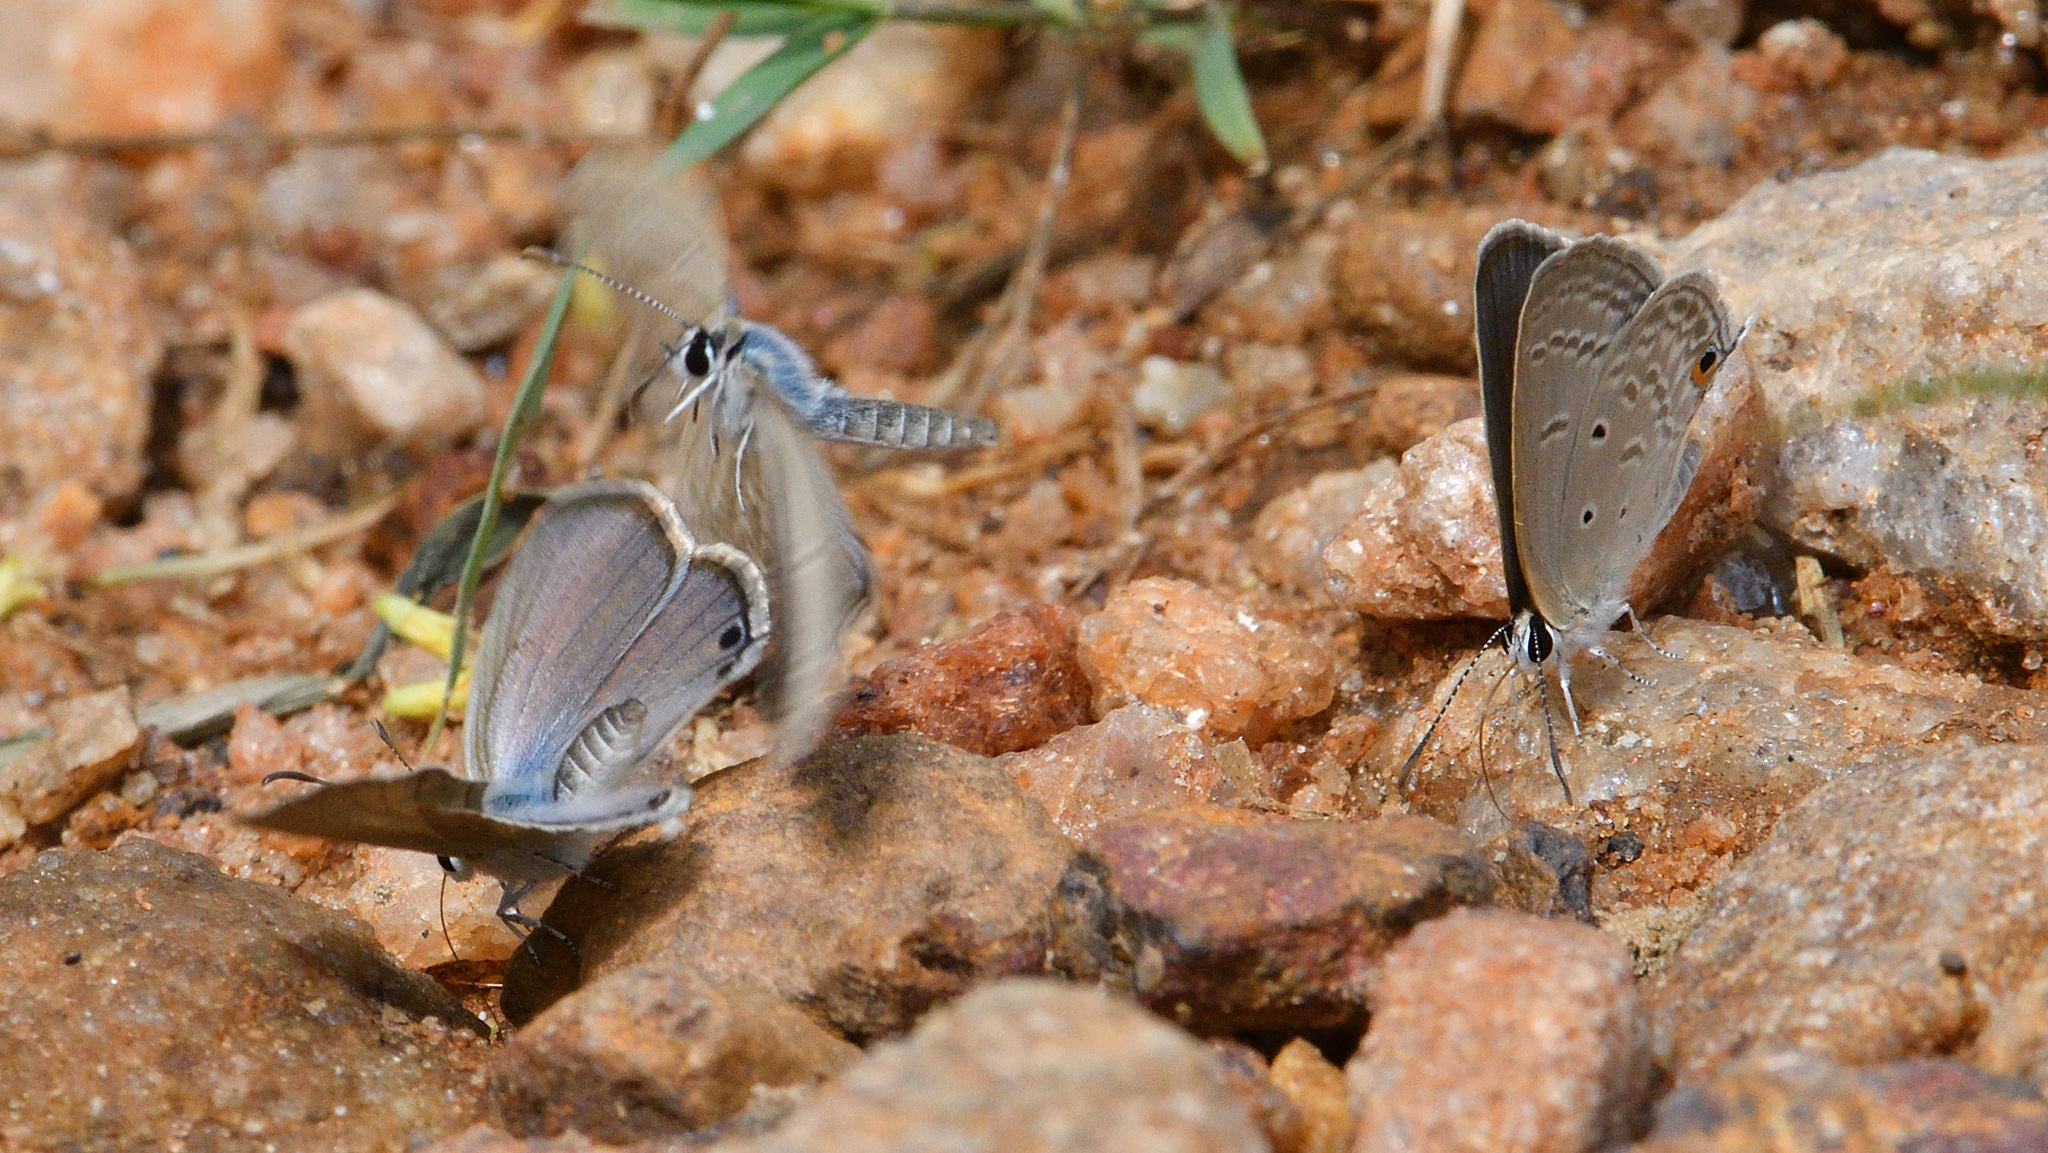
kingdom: Animalia
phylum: Arthropoda
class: Insecta
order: Lepidoptera
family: Lycaenidae
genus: Euchrysops
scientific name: Euchrysops cnejus
